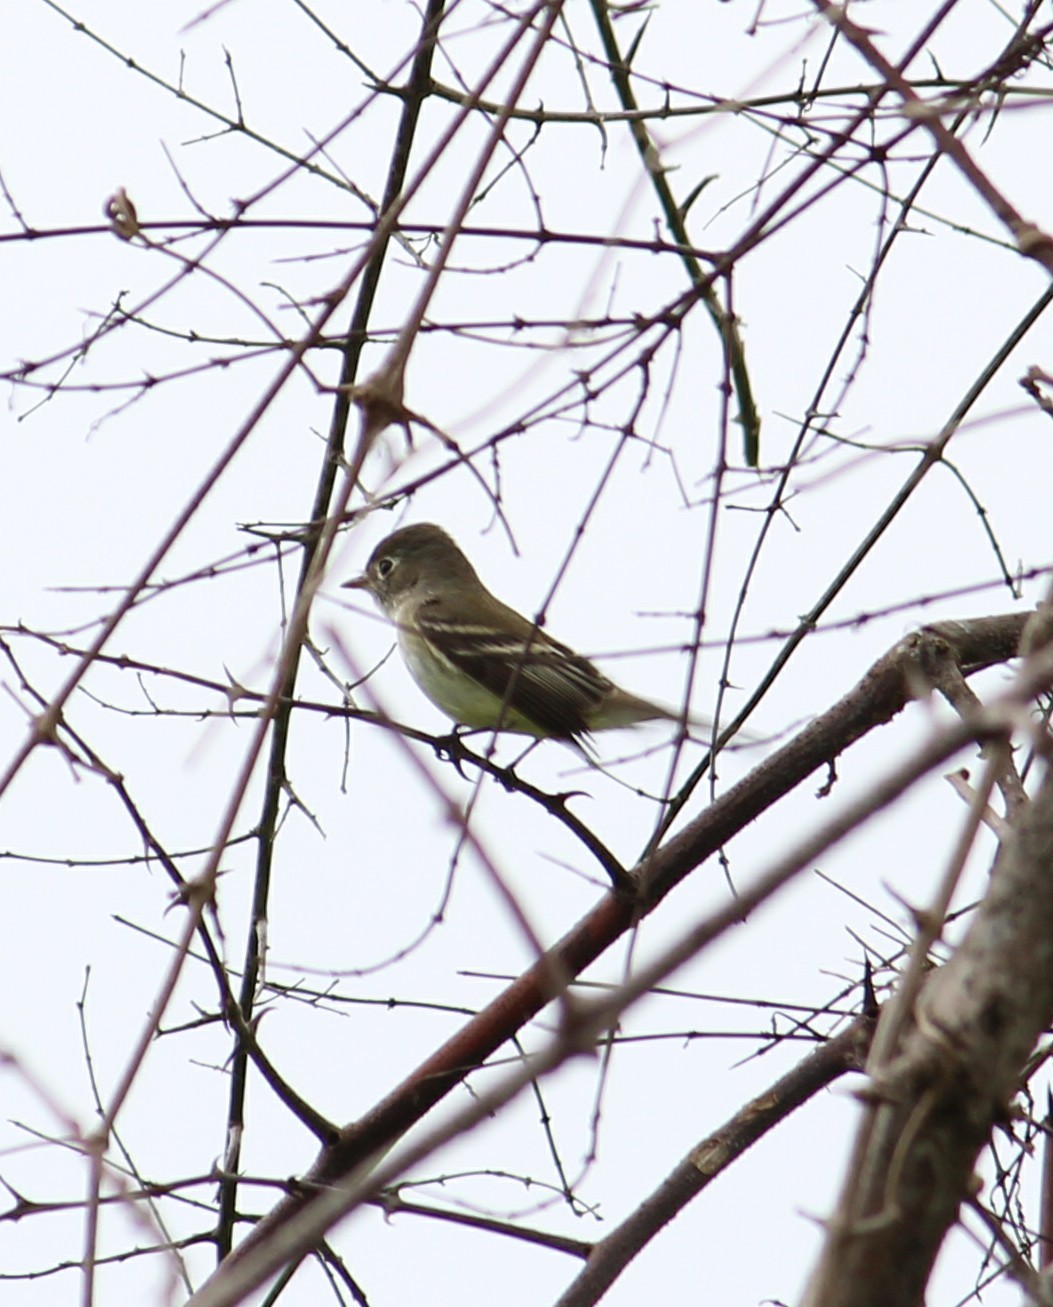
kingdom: Animalia
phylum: Chordata
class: Aves
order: Passeriformes
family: Tyrannidae
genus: Empidonax
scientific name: Empidonax minimus
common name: Least flycatcher
